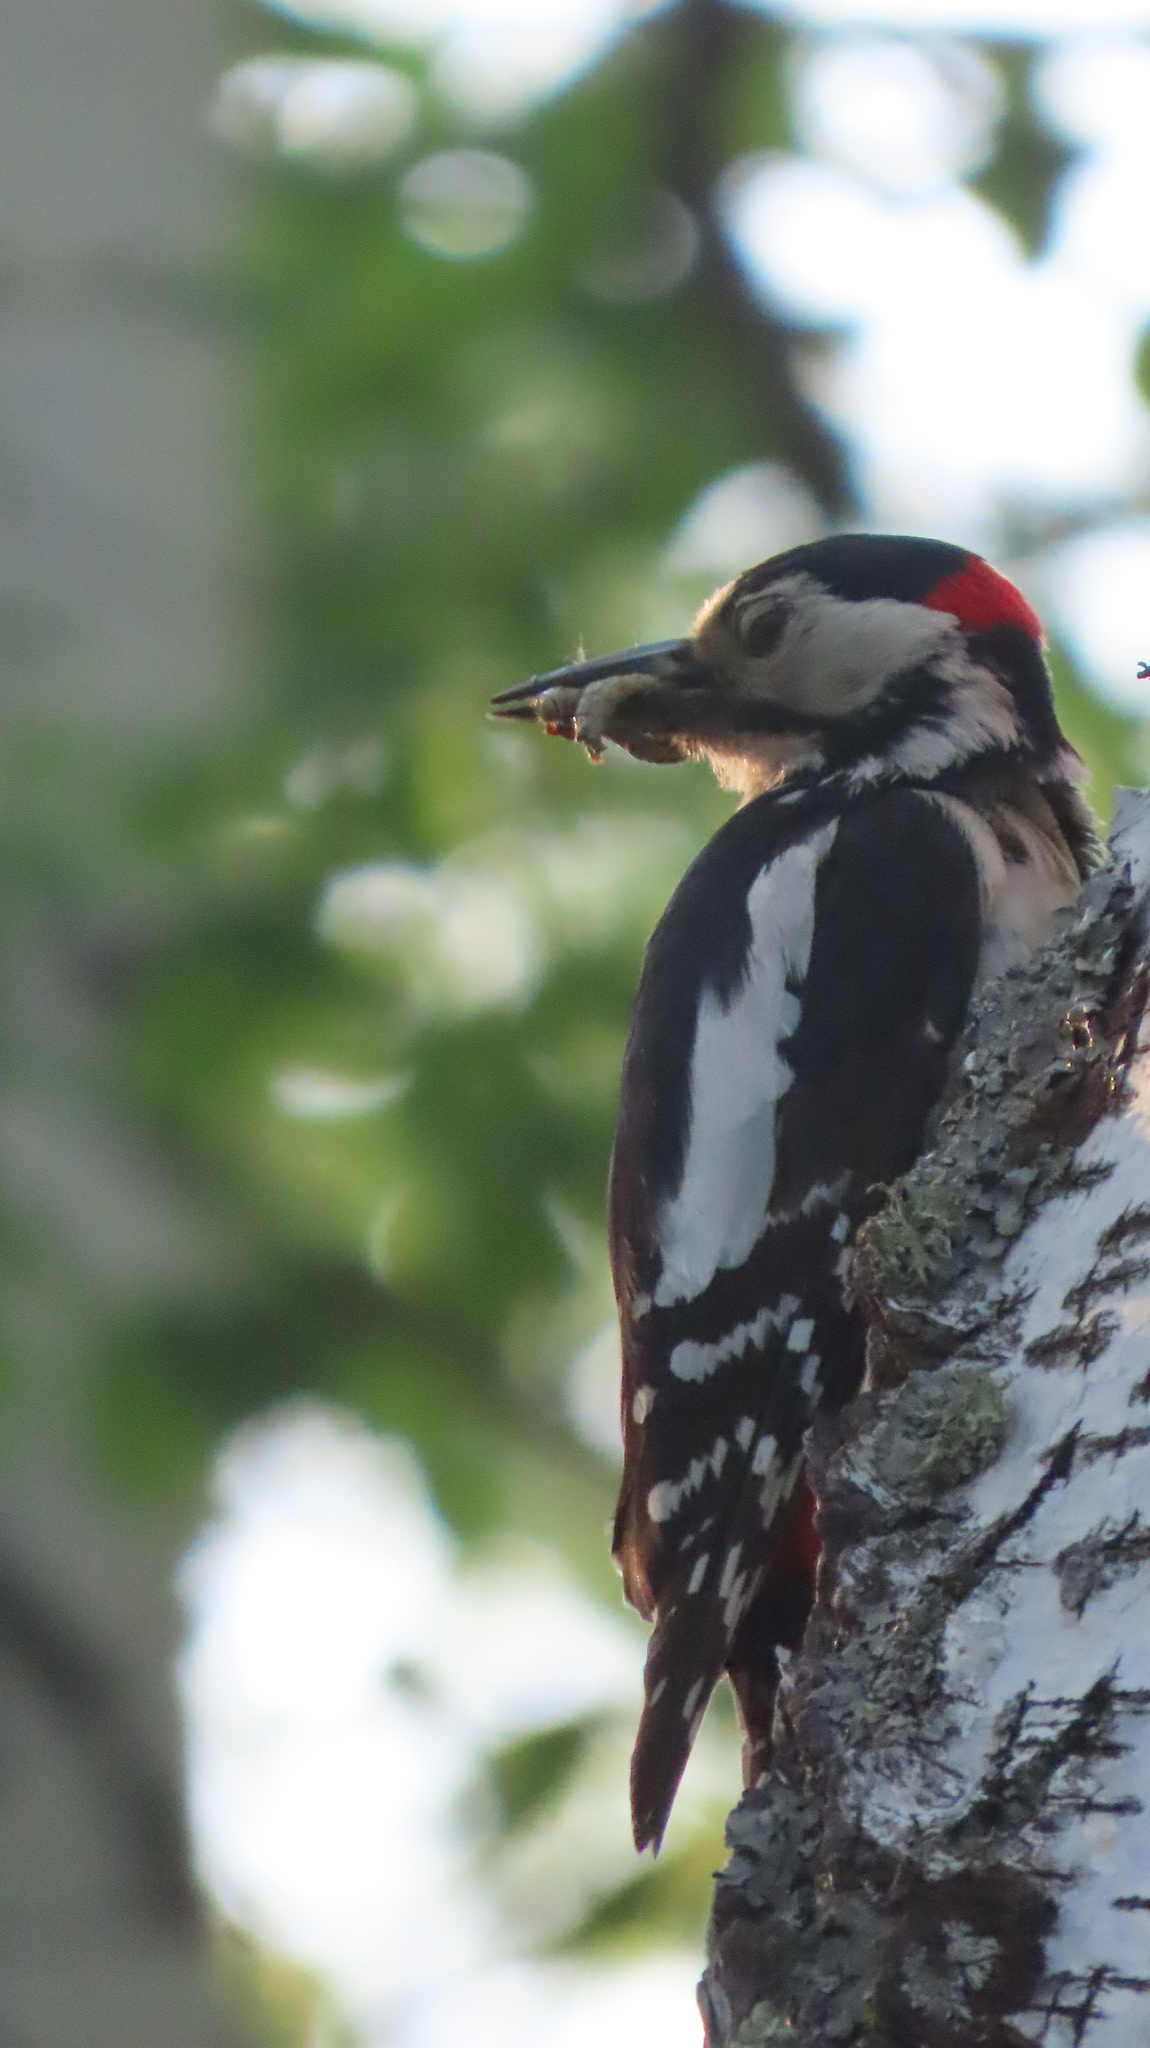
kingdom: Animalia
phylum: Chordata
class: Aves
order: Piciformes
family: Picidae
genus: Dendrocopos
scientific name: Dendrocopos major
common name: Great spotted woodpecker
